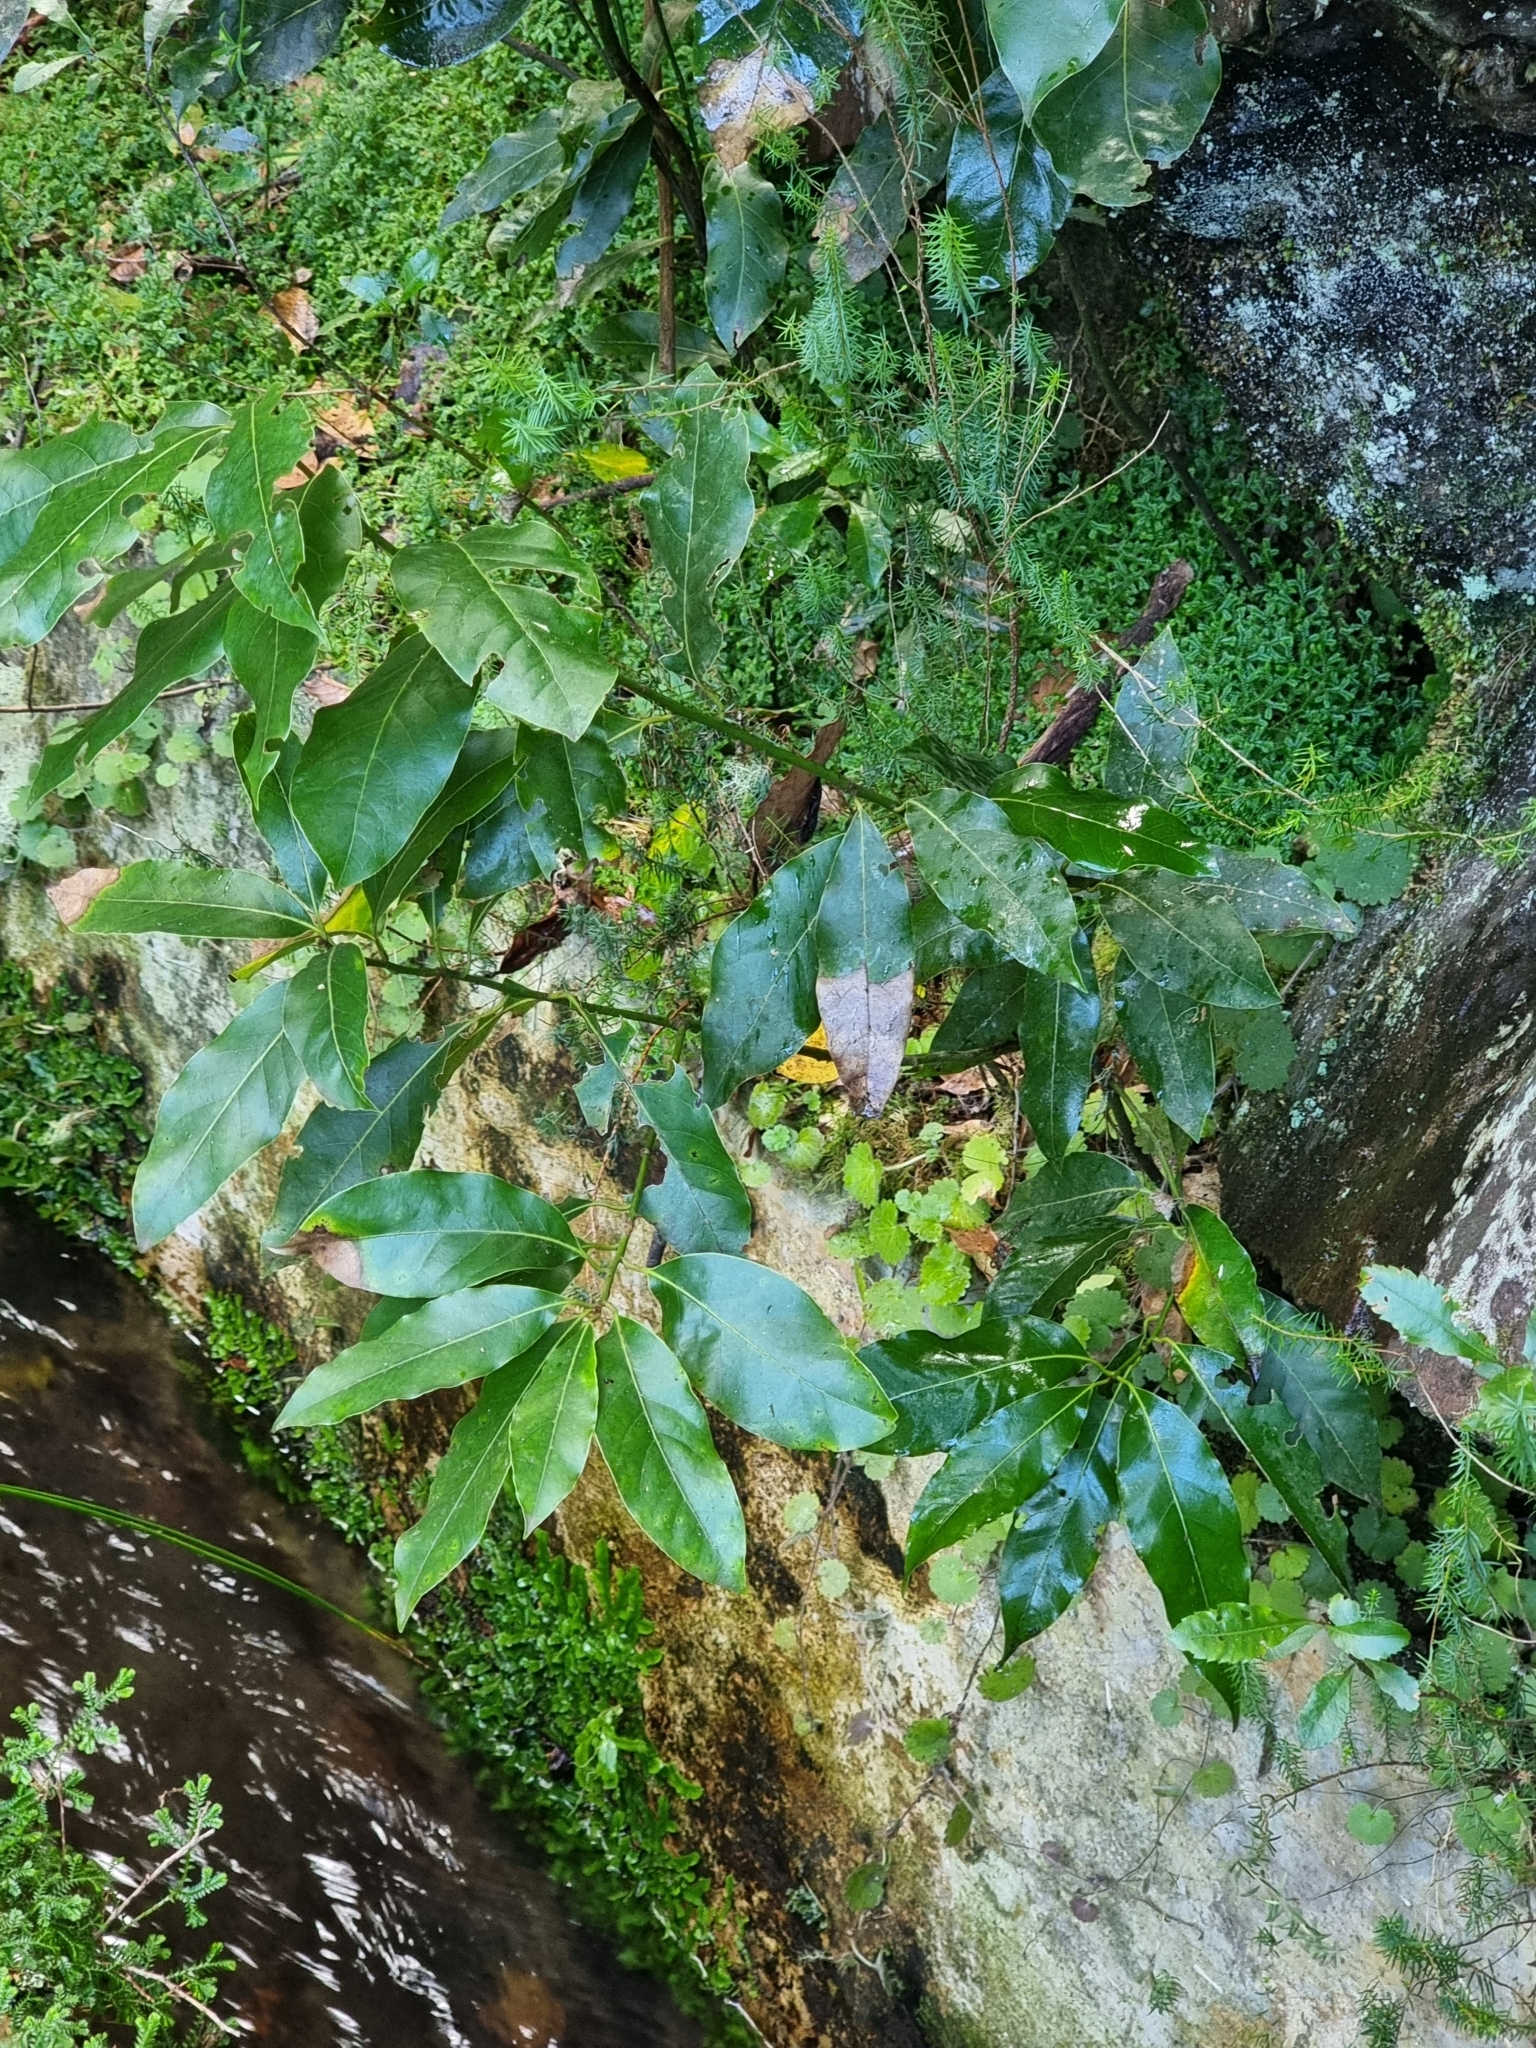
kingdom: Plantae
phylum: Tracheophyta
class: Magnoliopsida
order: Laurales
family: Lauraceae
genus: Laurus
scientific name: Laurus novocanariensis
